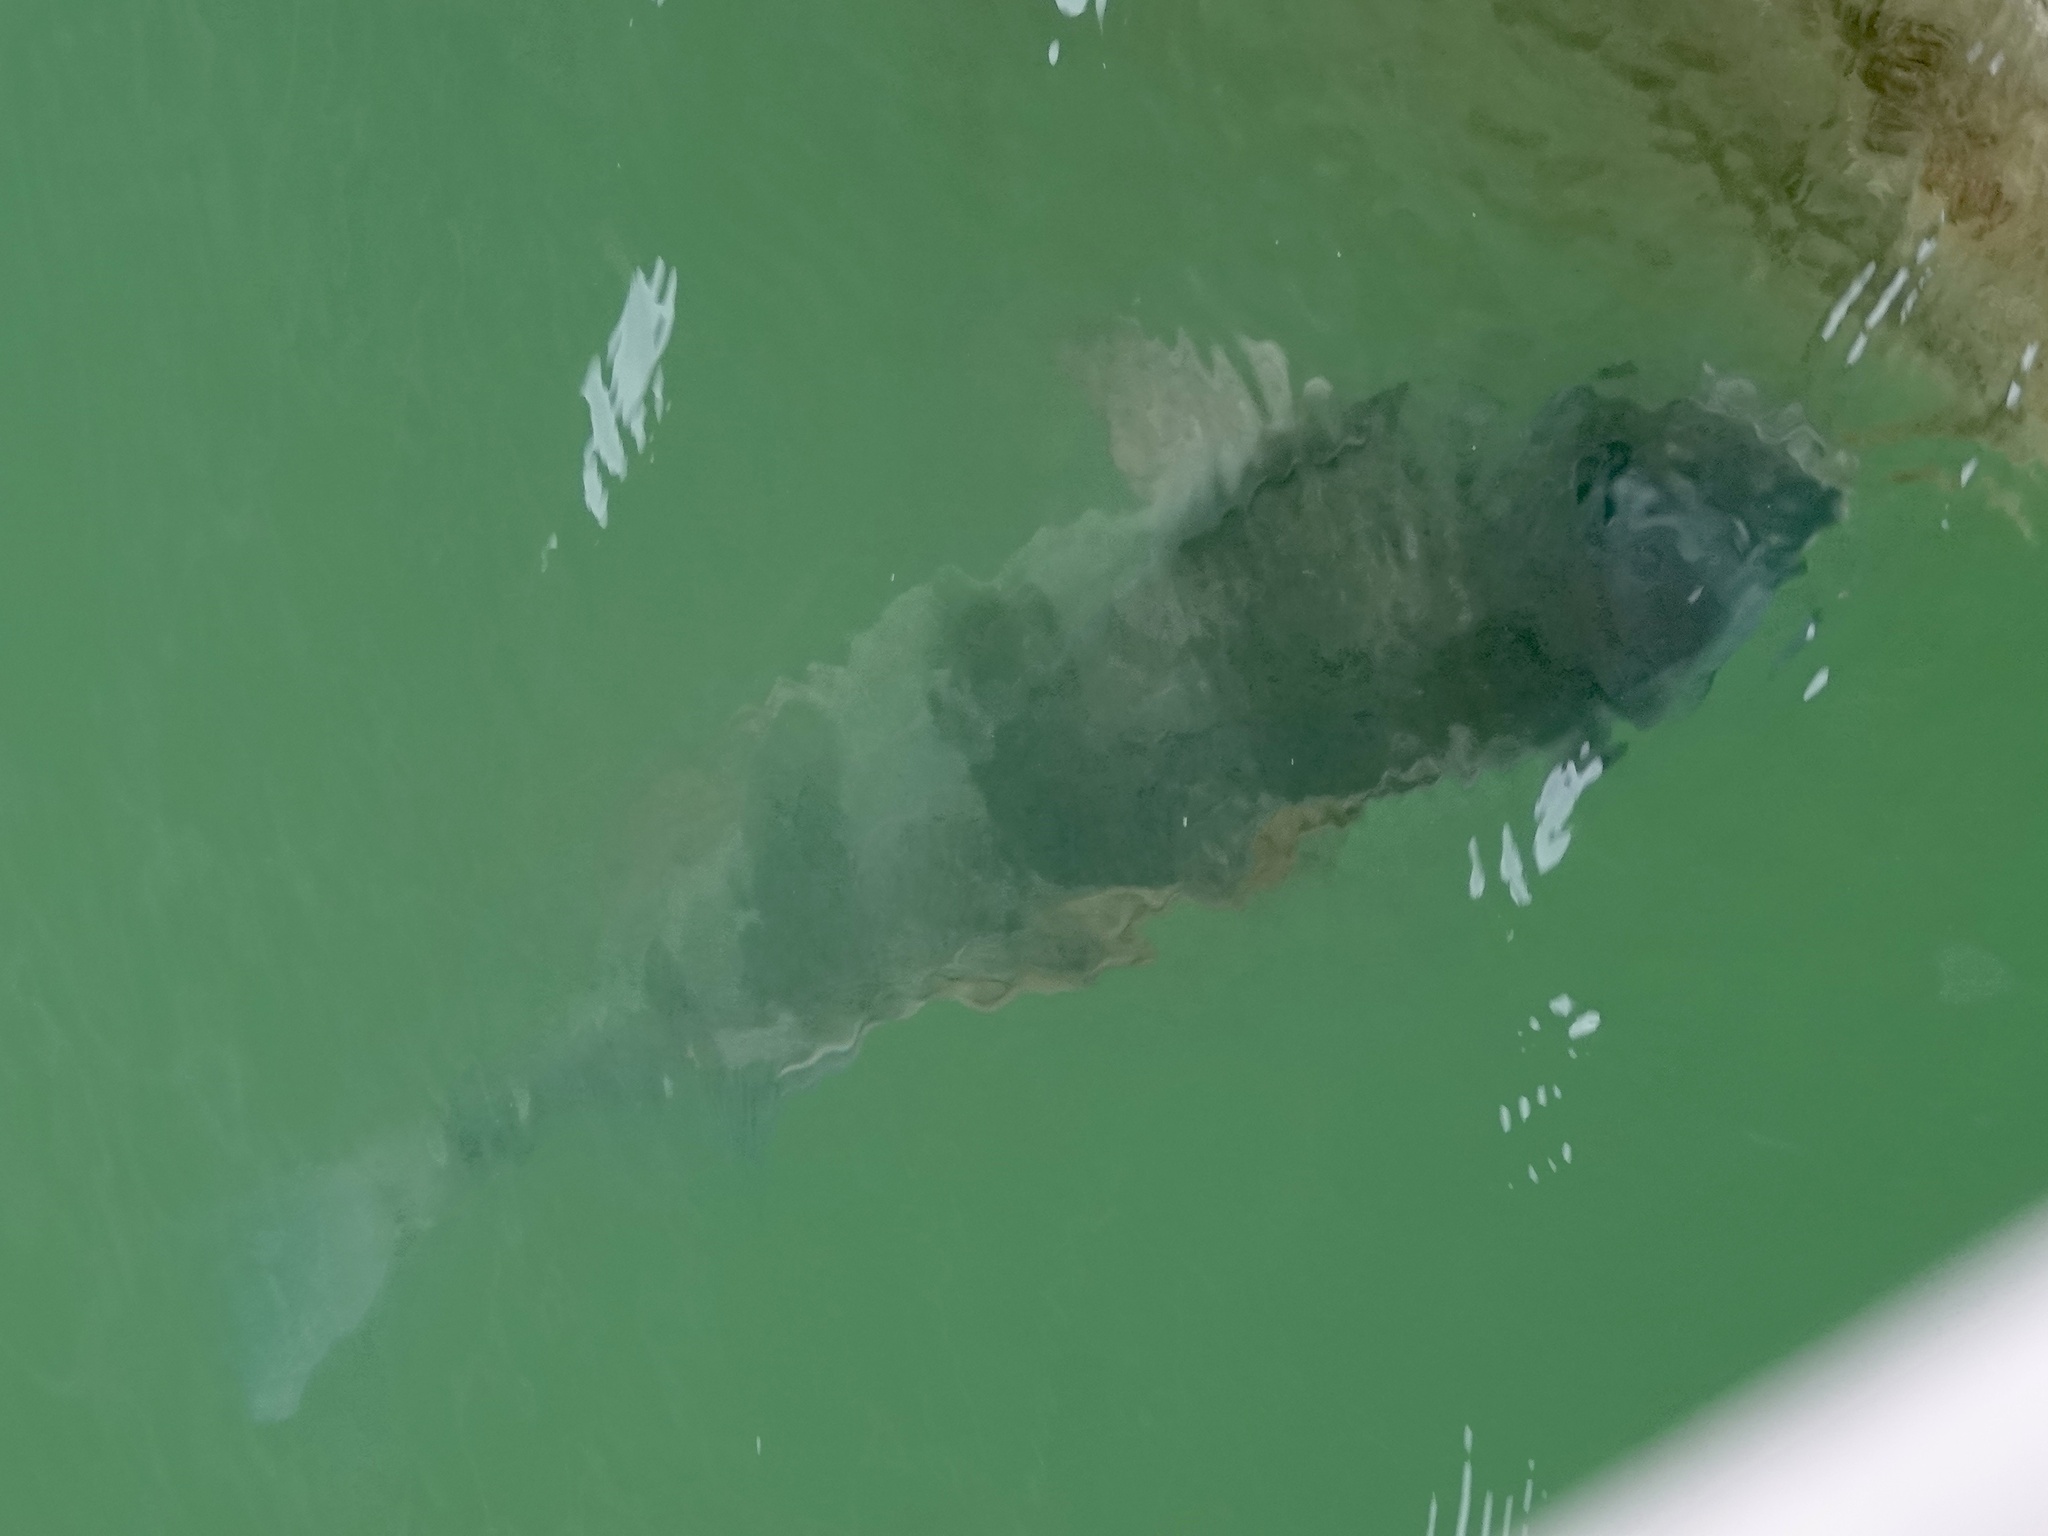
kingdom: Animalia
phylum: Chordata
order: Perciformes
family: Sparidae
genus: Archosargus
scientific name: Archosargus probatocephalus
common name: Sheepshead
